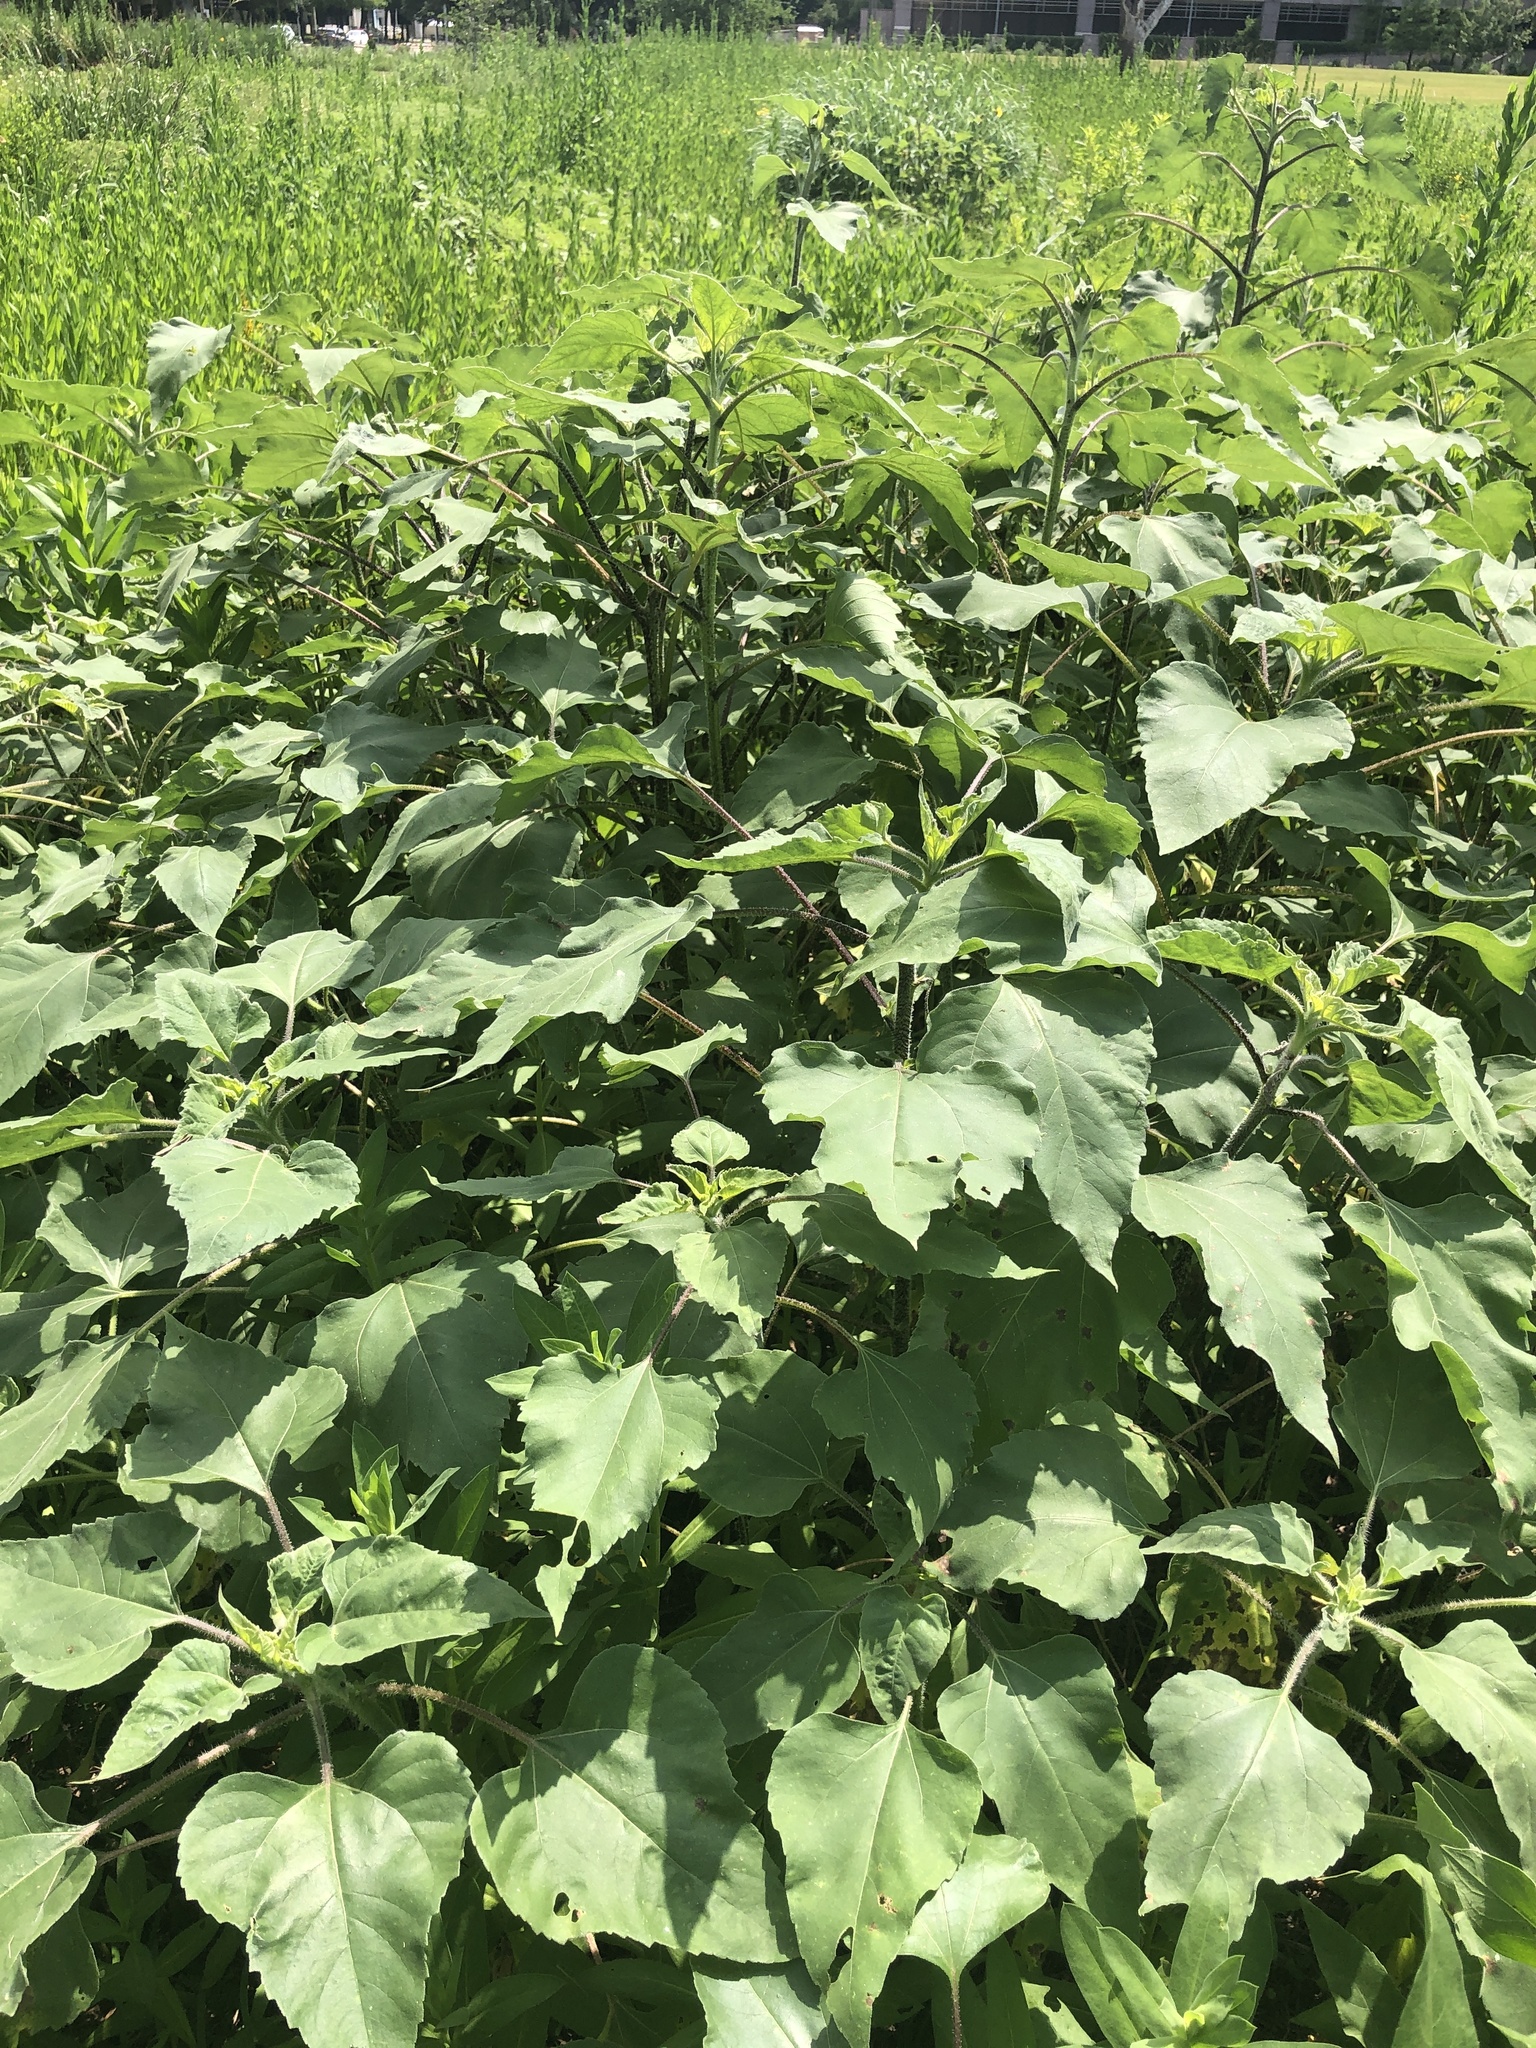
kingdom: Plantae
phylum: Tracheophyta
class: Magnoliopsida
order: Asterales
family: Asteraceae
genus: Helianthus
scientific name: Helianthus annuus
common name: Sunflower
